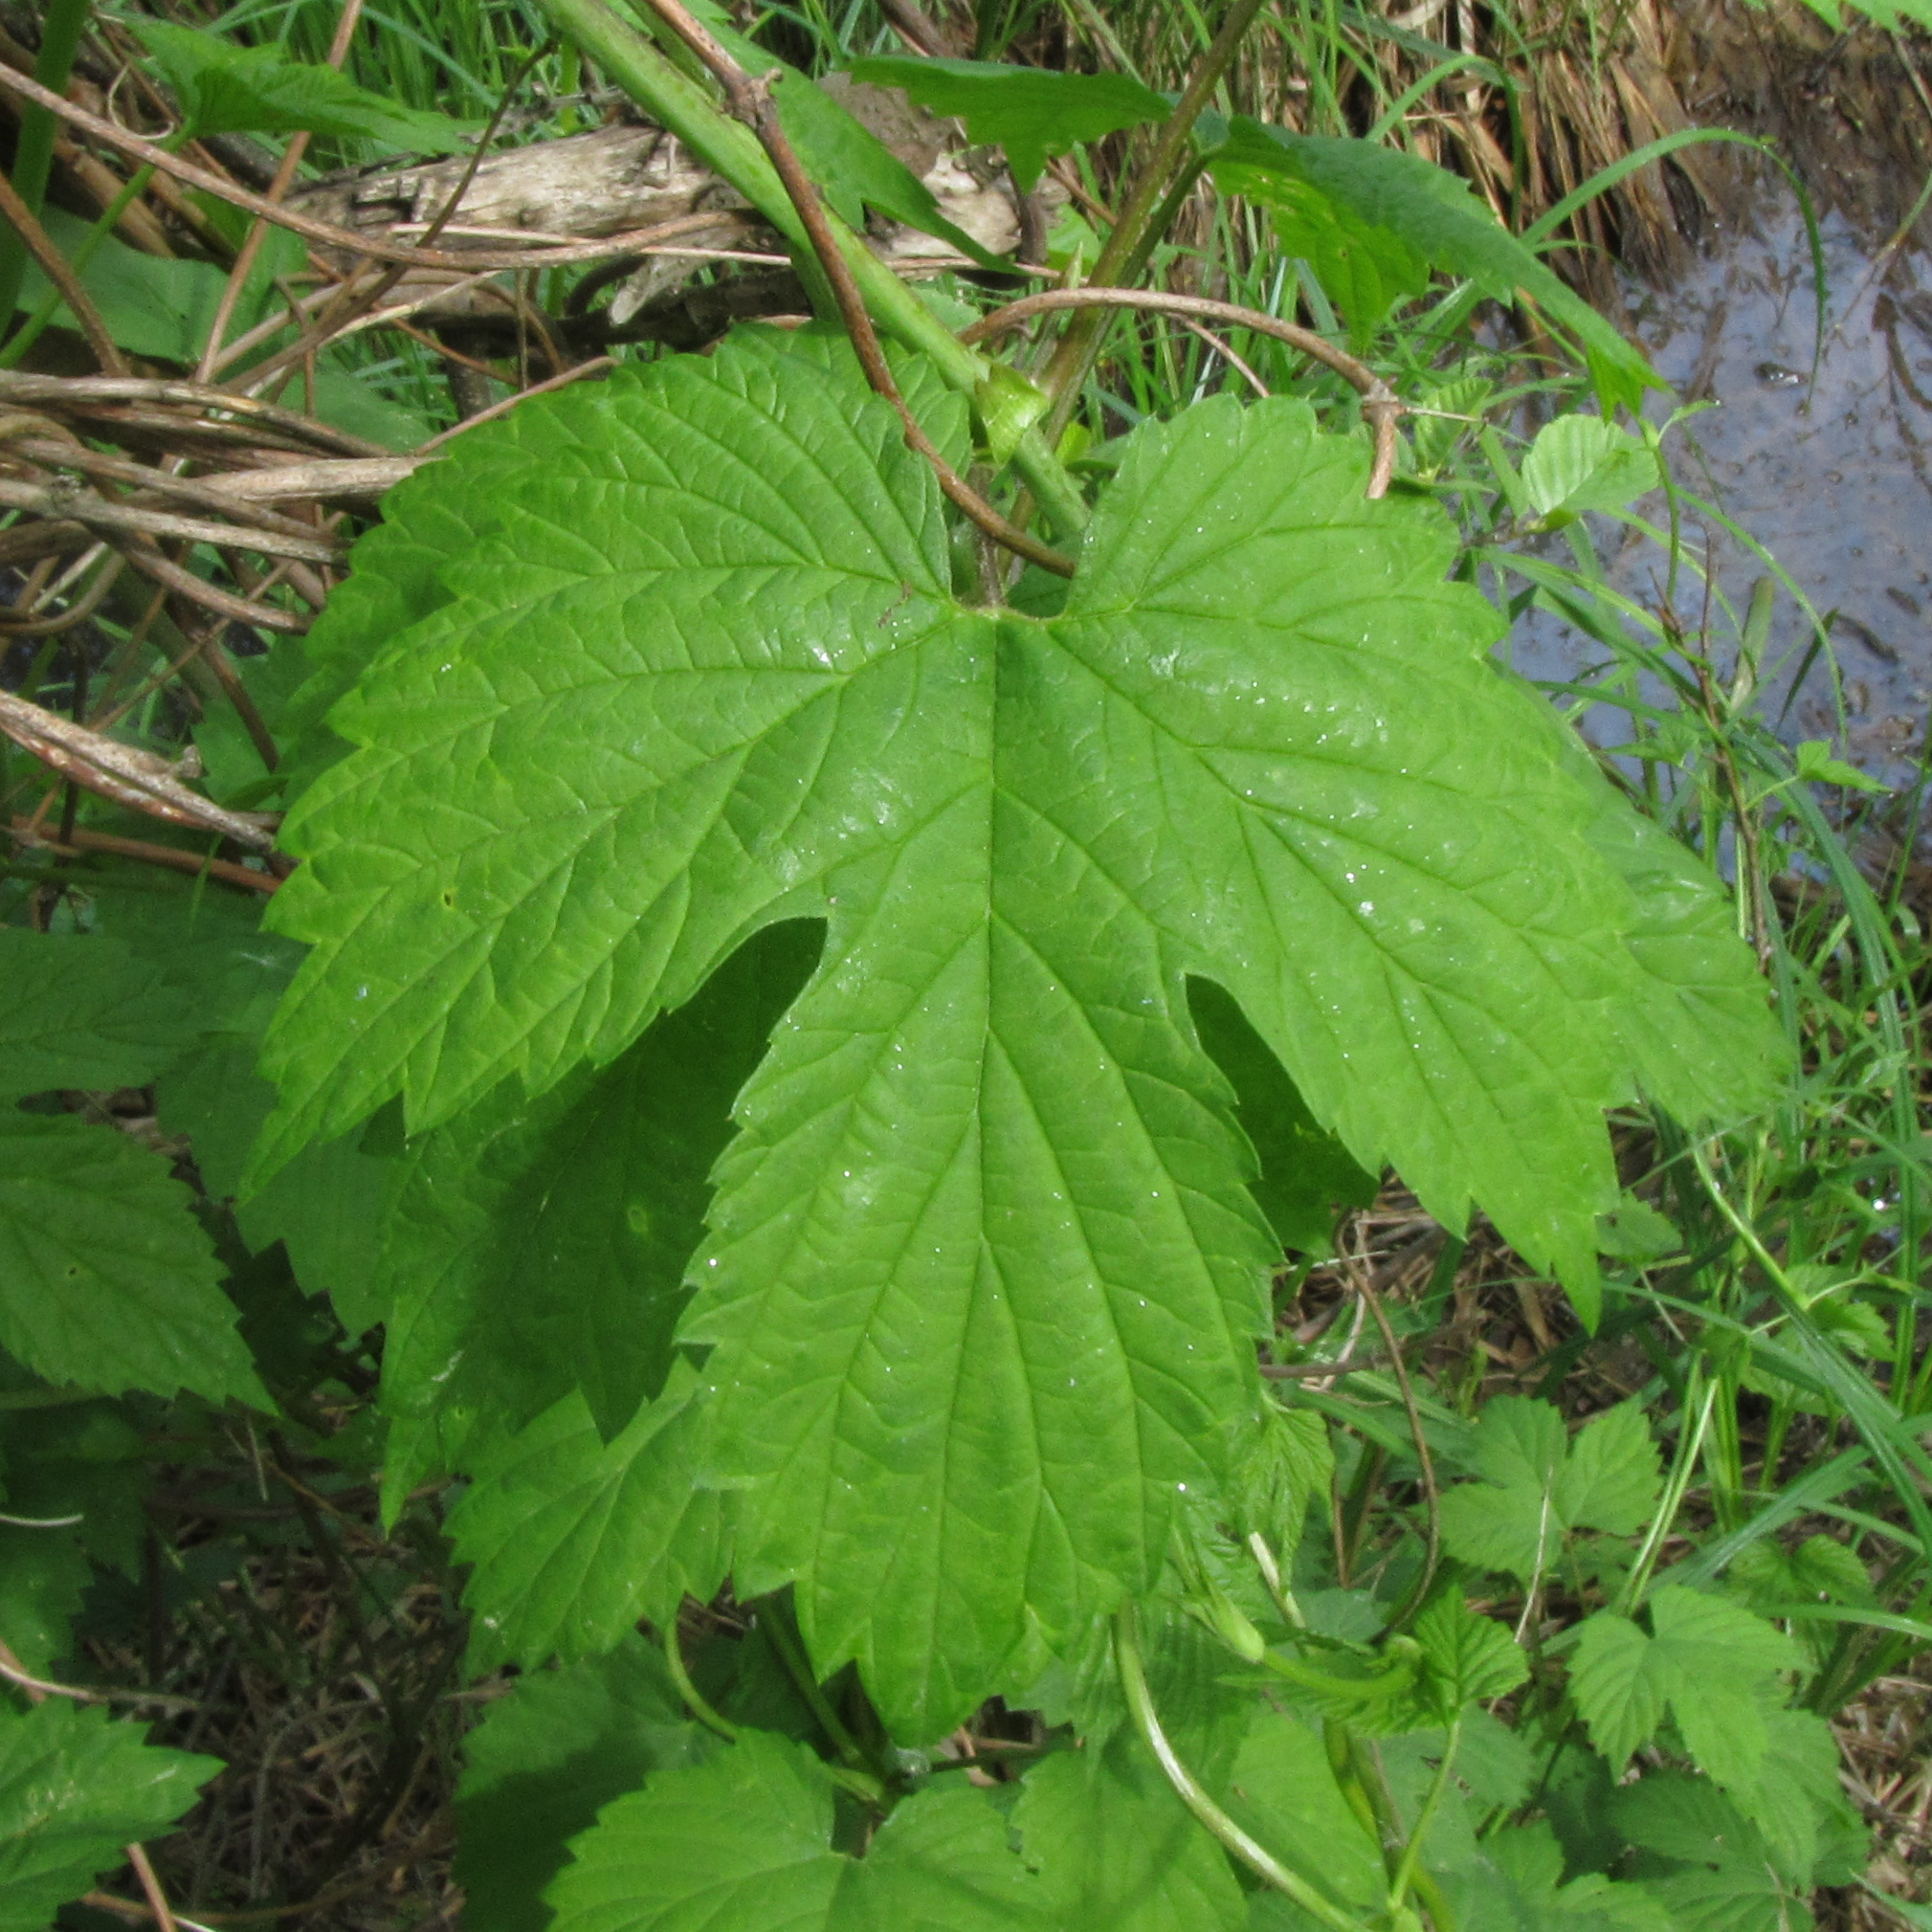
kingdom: Plantae
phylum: Tracheophyta
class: Magnoliopsida
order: Rosales
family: Cannabaceae
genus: Humulus
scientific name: Humulus lupulus
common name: Hop
